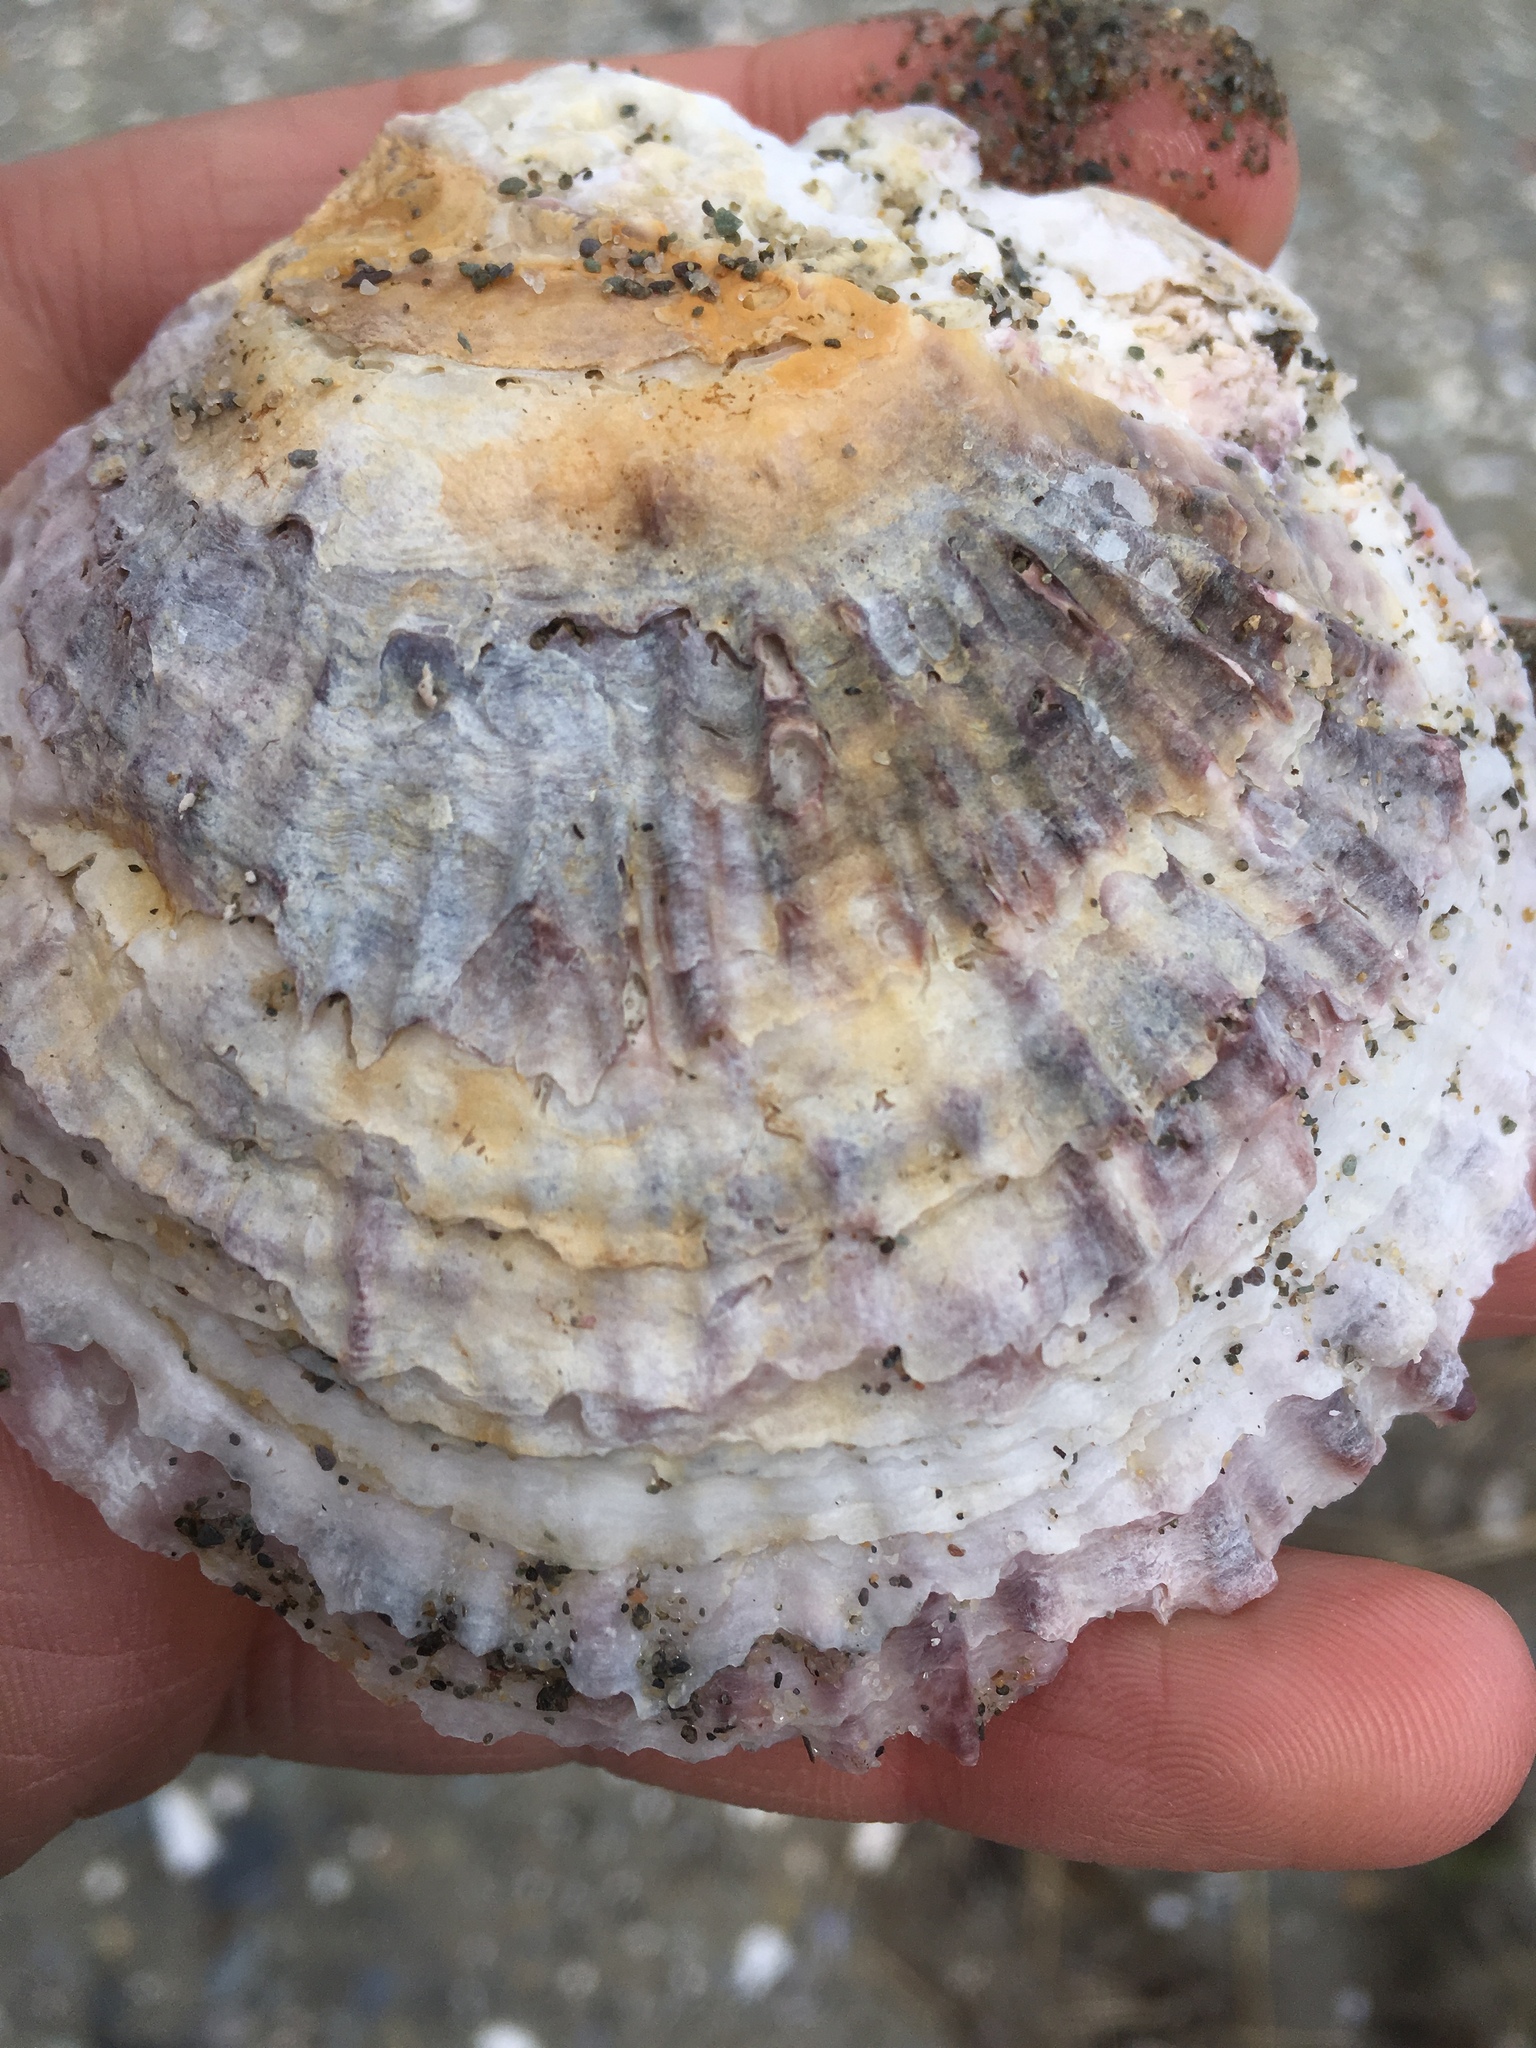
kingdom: Animalia
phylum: Mollusca
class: Bivalvia
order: Ostreida
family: Ostreidae
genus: Ostrea
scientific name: Ostrea edulis
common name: Flat oyster
